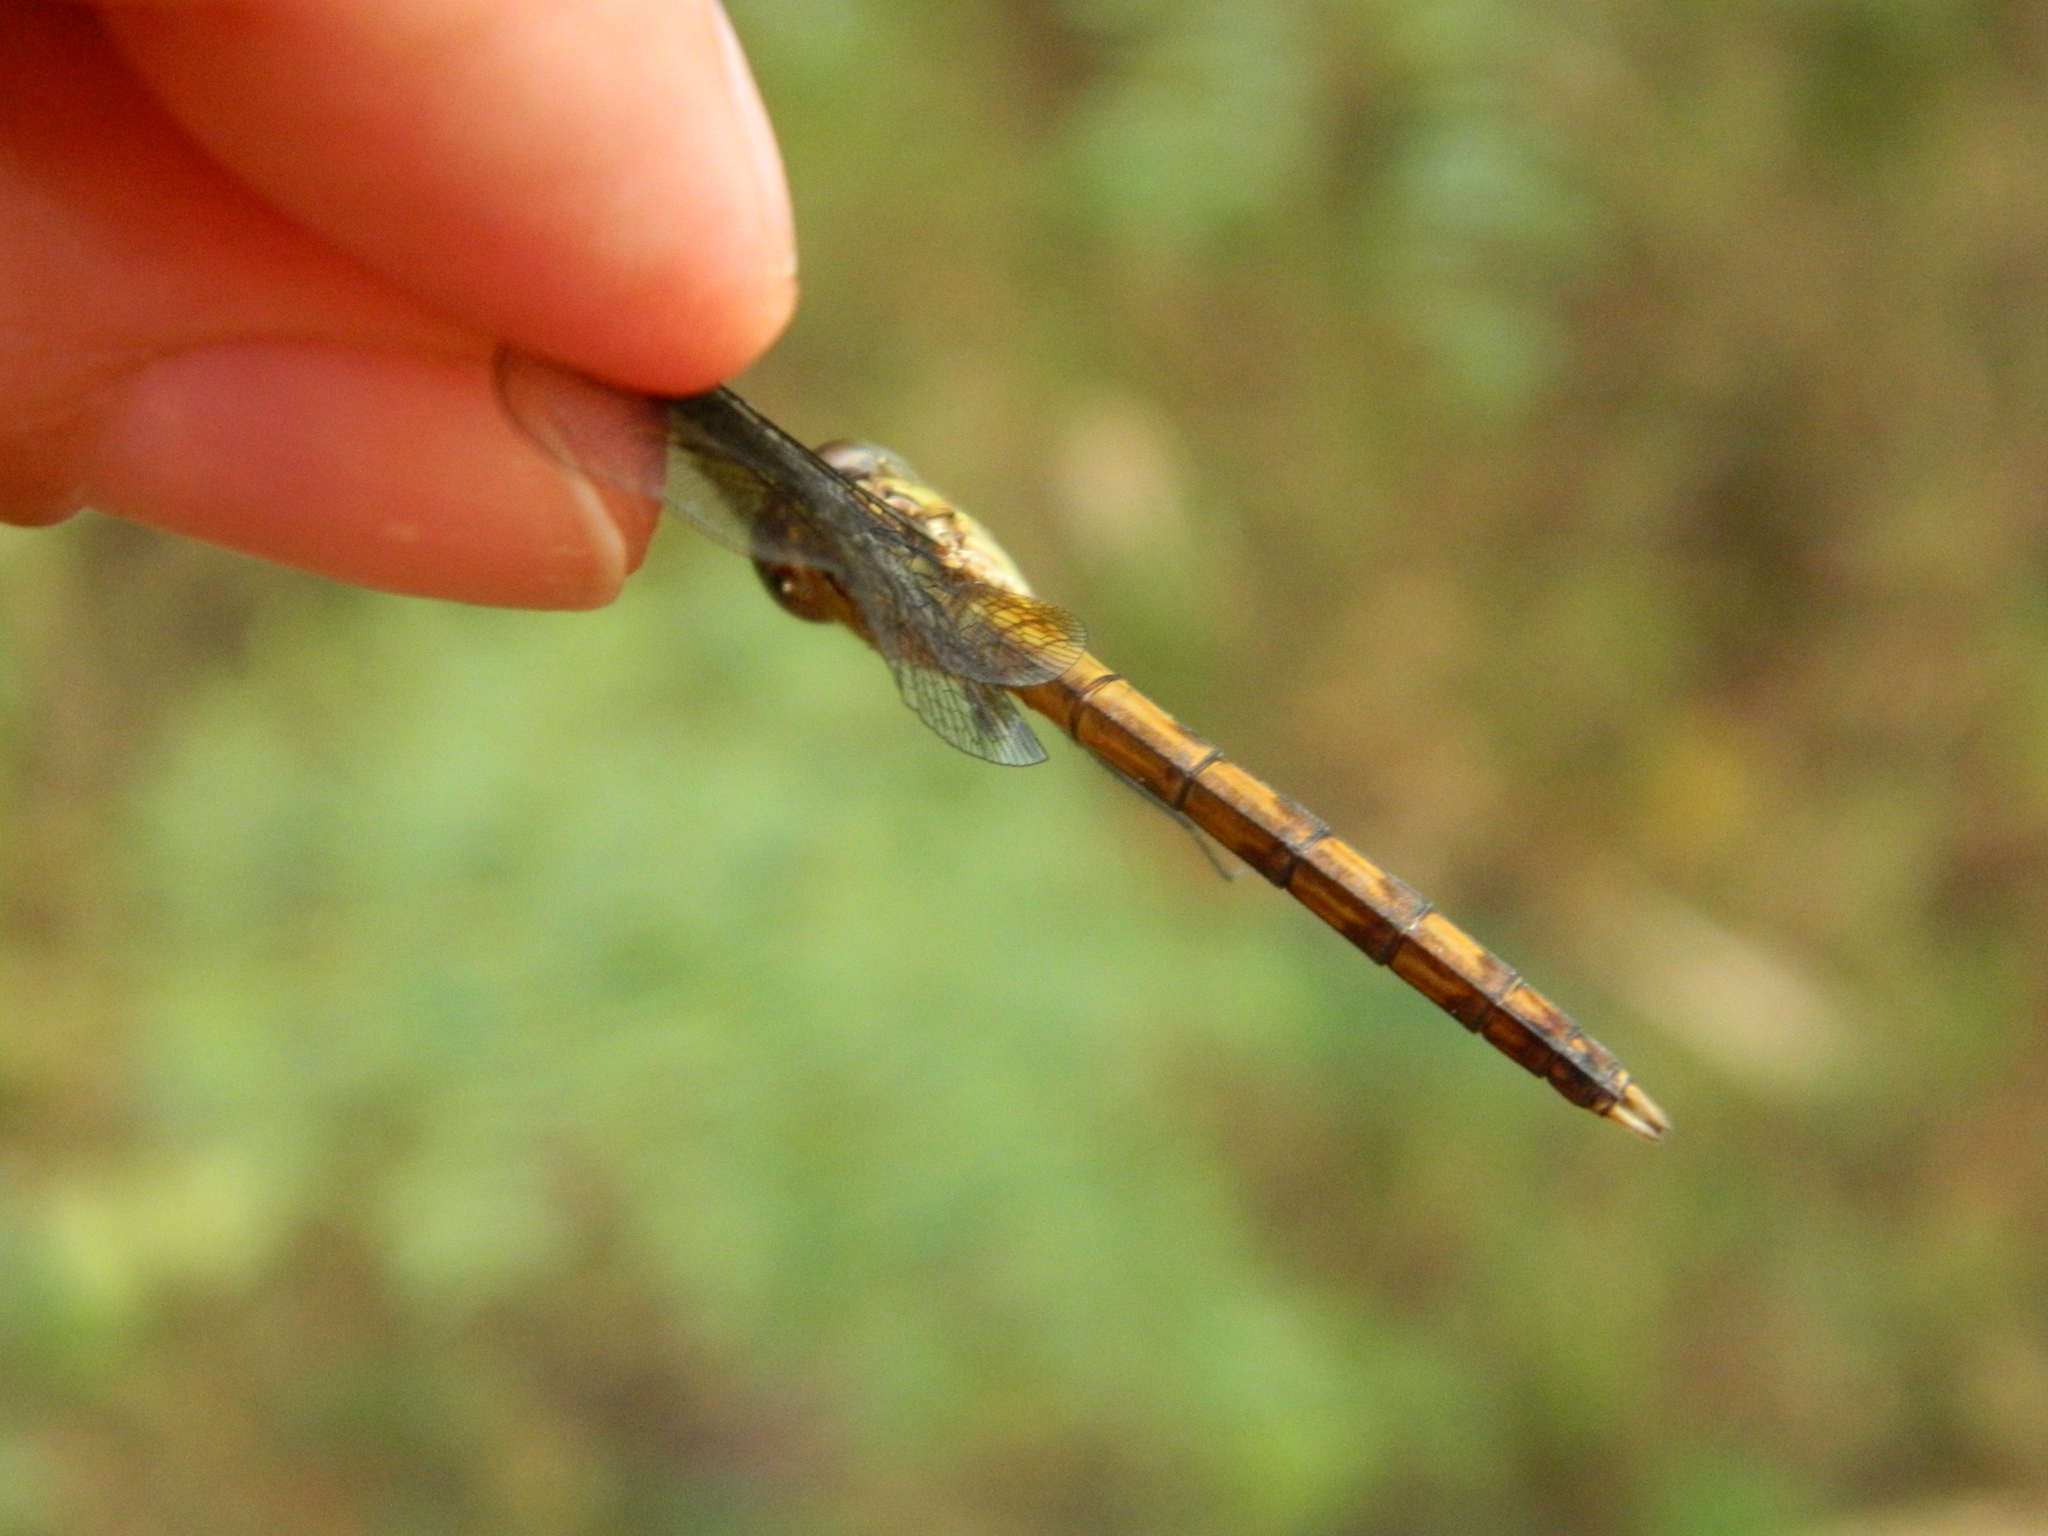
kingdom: Animalia
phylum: Arthropoda
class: Insecta
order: Odonata
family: Libellulidae
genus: Erythrodiplax
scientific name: Erythrodiplax umbrata
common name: Band-winged dragonlet
